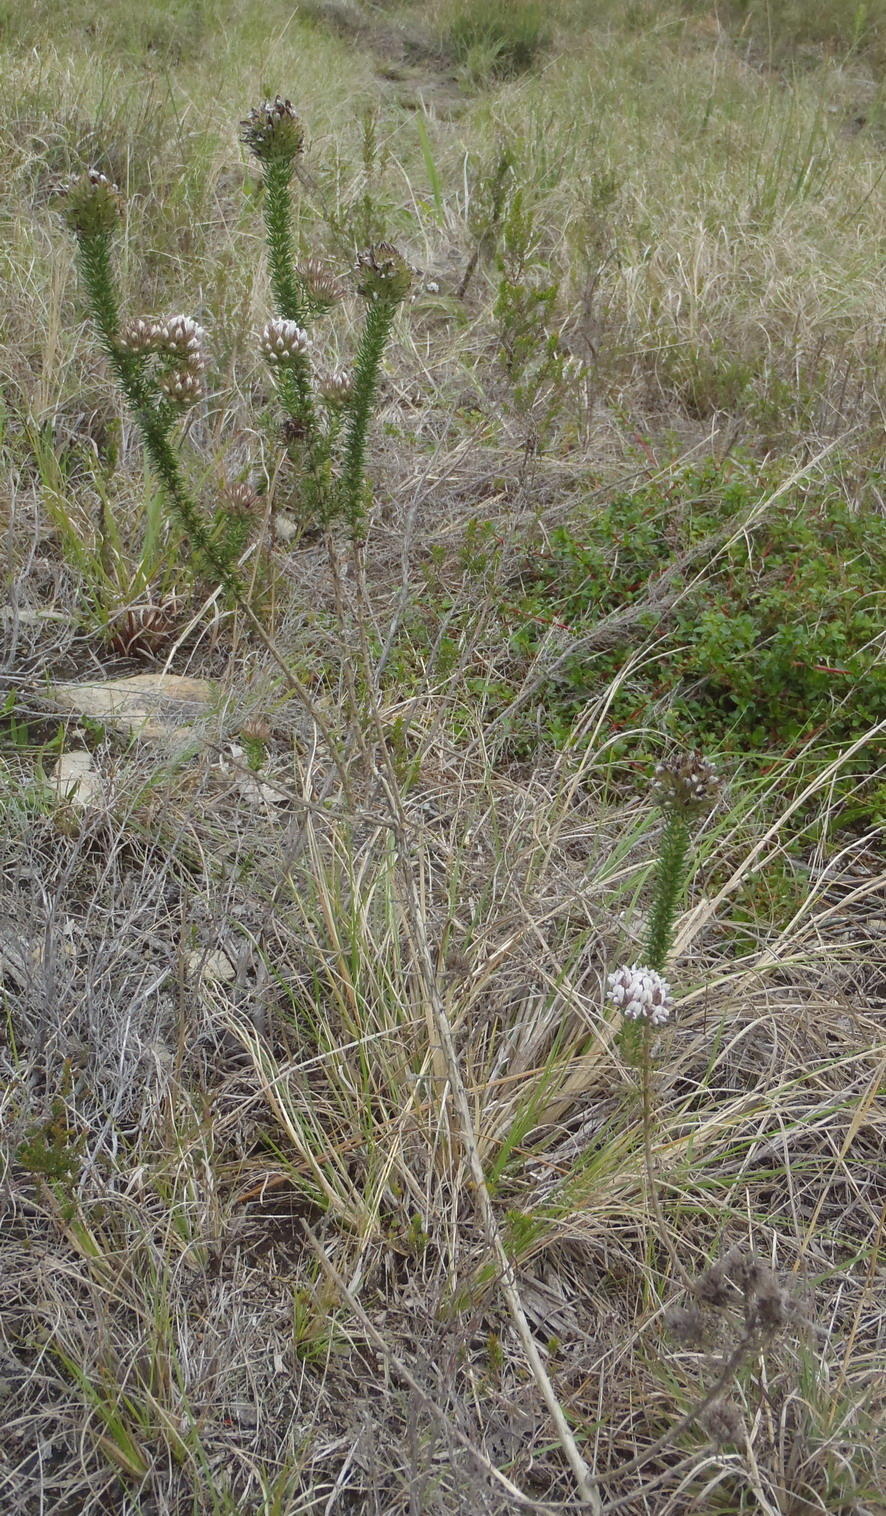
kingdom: Plantae
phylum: Tracheophyta
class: Magnoliopsida
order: Fabales
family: Fabaceae
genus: Aspalathus
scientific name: Aspalathus cerrhantha
